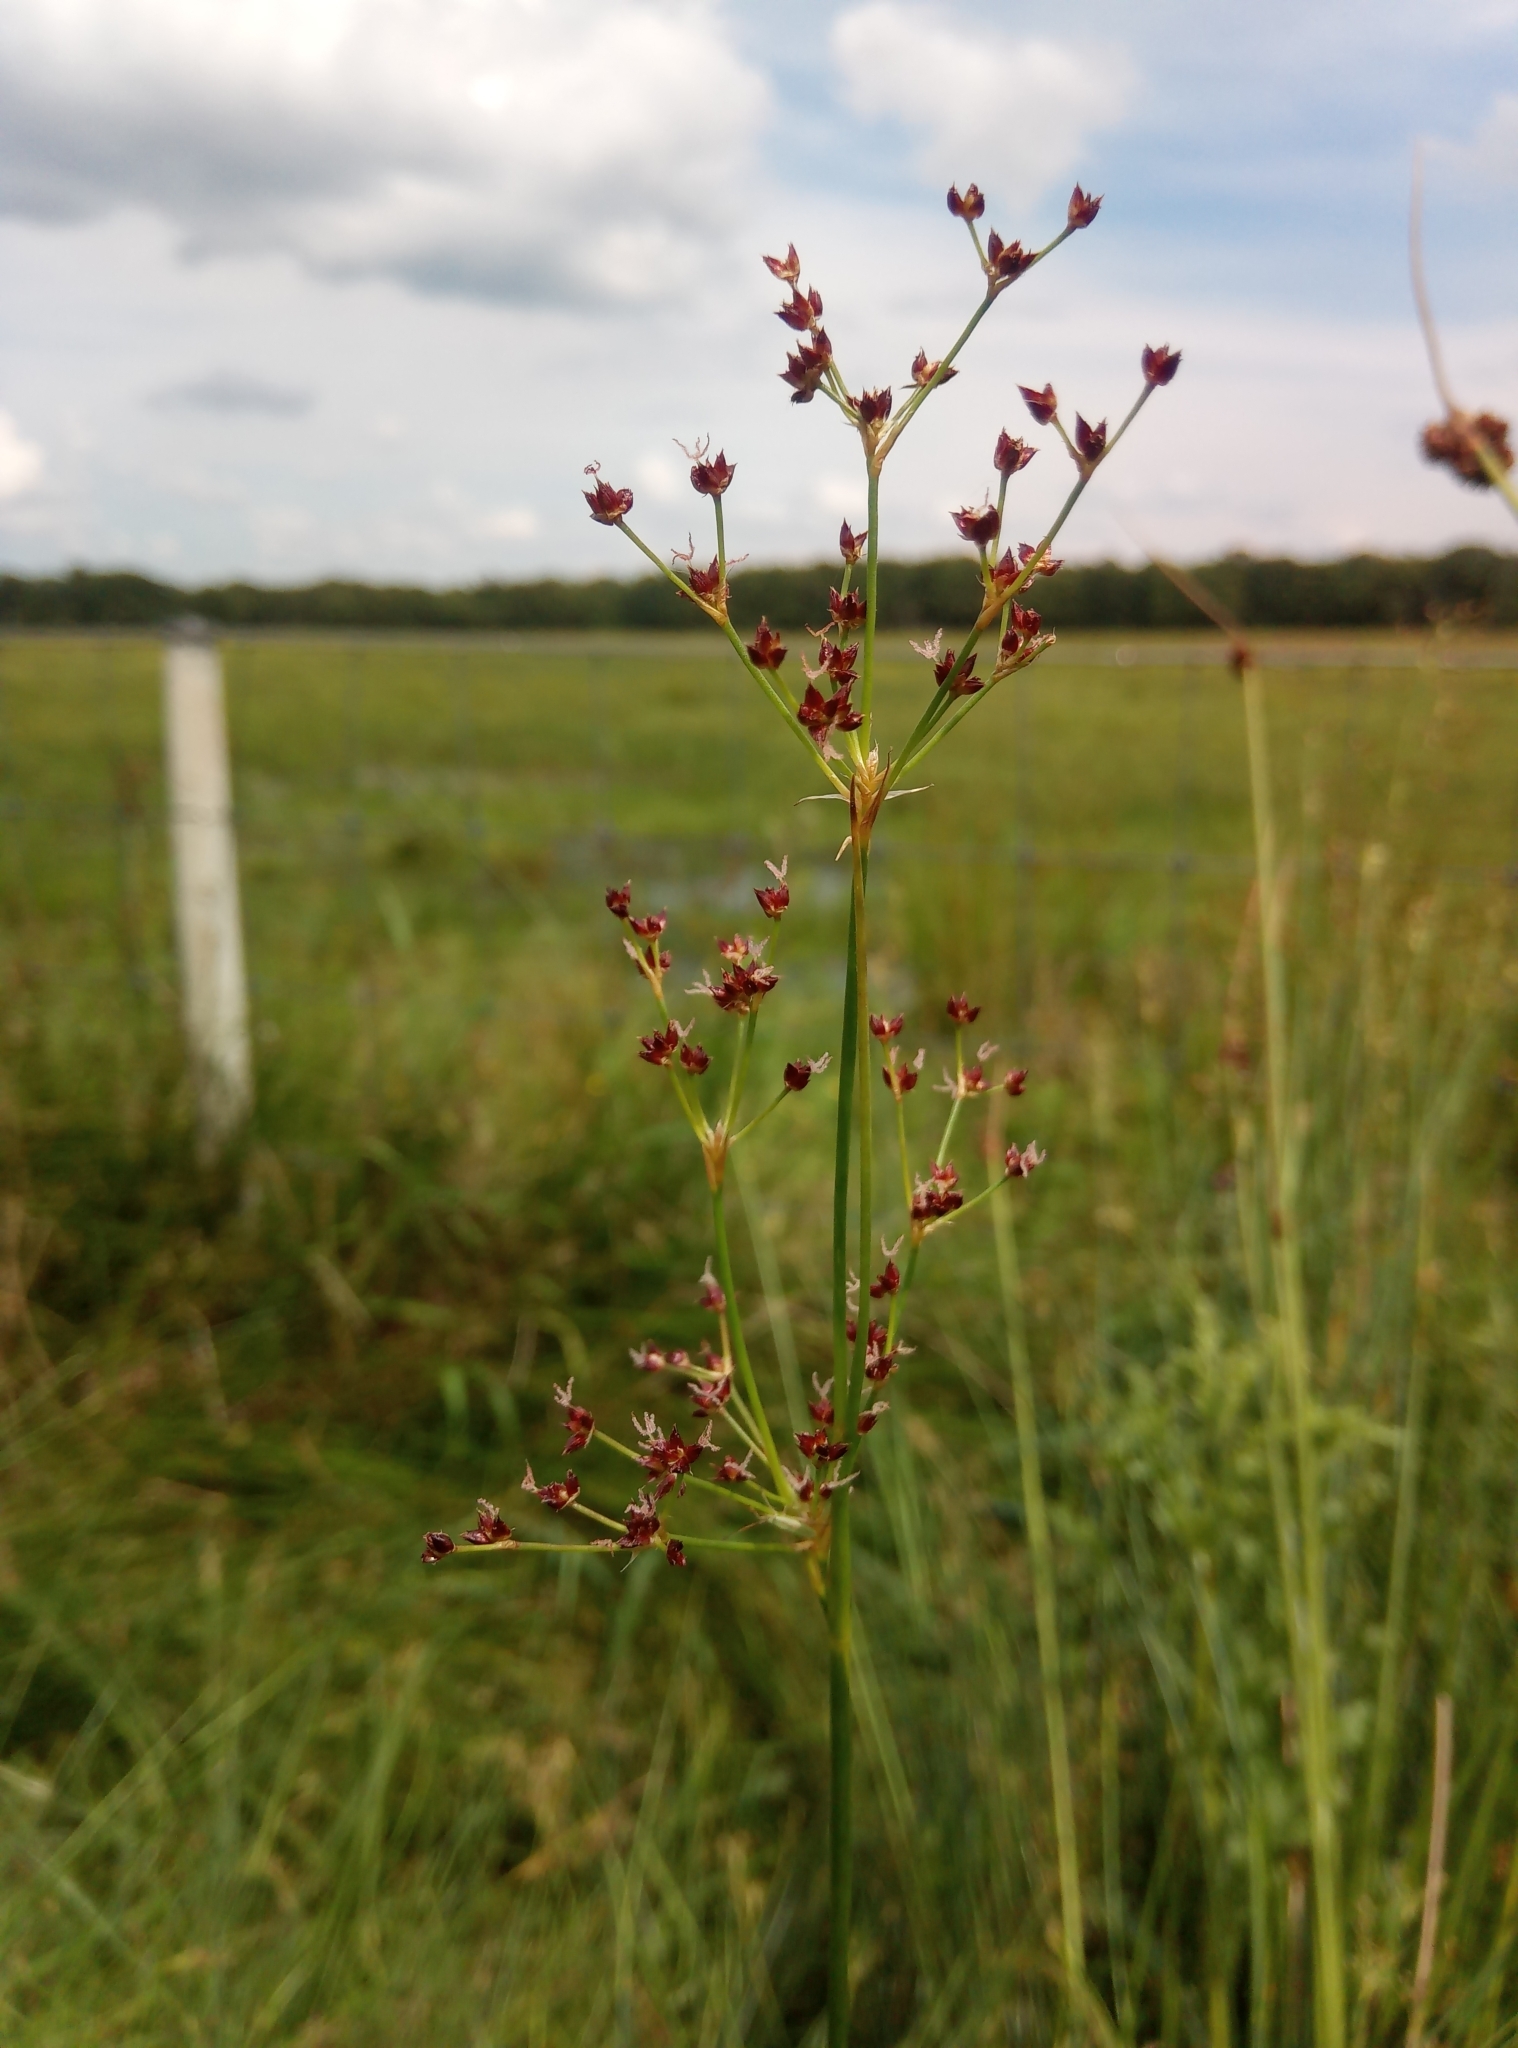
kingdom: Plantae
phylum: Tracheophyta
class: Liliopsida
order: Poales
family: Juncaceae
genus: Juncus
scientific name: Juncus acutiflorus
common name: Sharp-flowered rush
